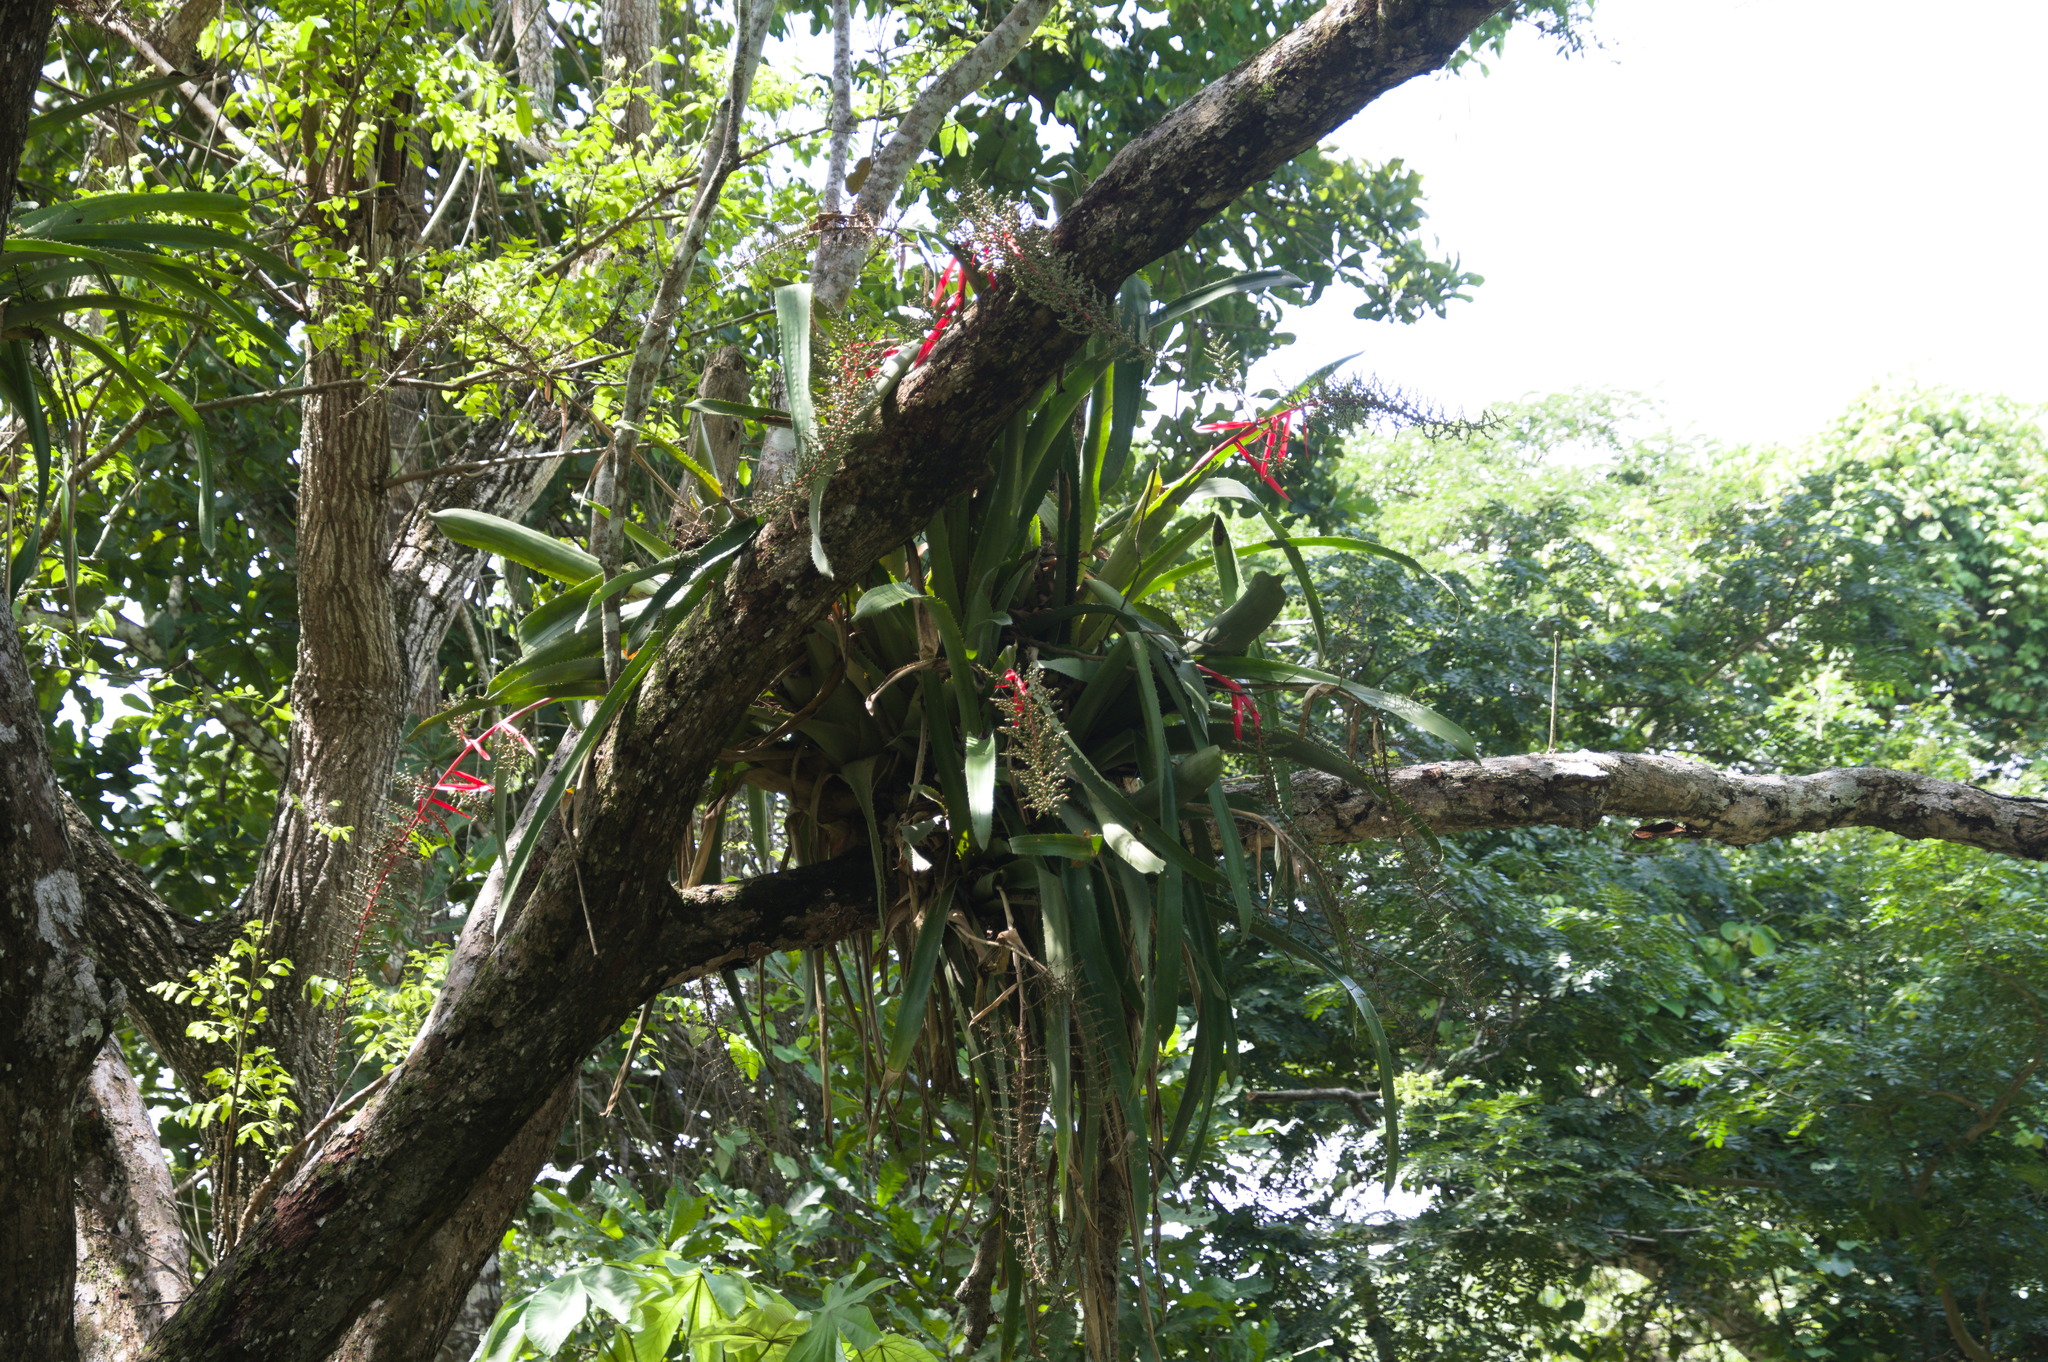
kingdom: Plantae
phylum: Tracheophyta
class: Liliopsida
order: Poales
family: Bromeliaceae
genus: Aechmea
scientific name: Aechmea bracteata
